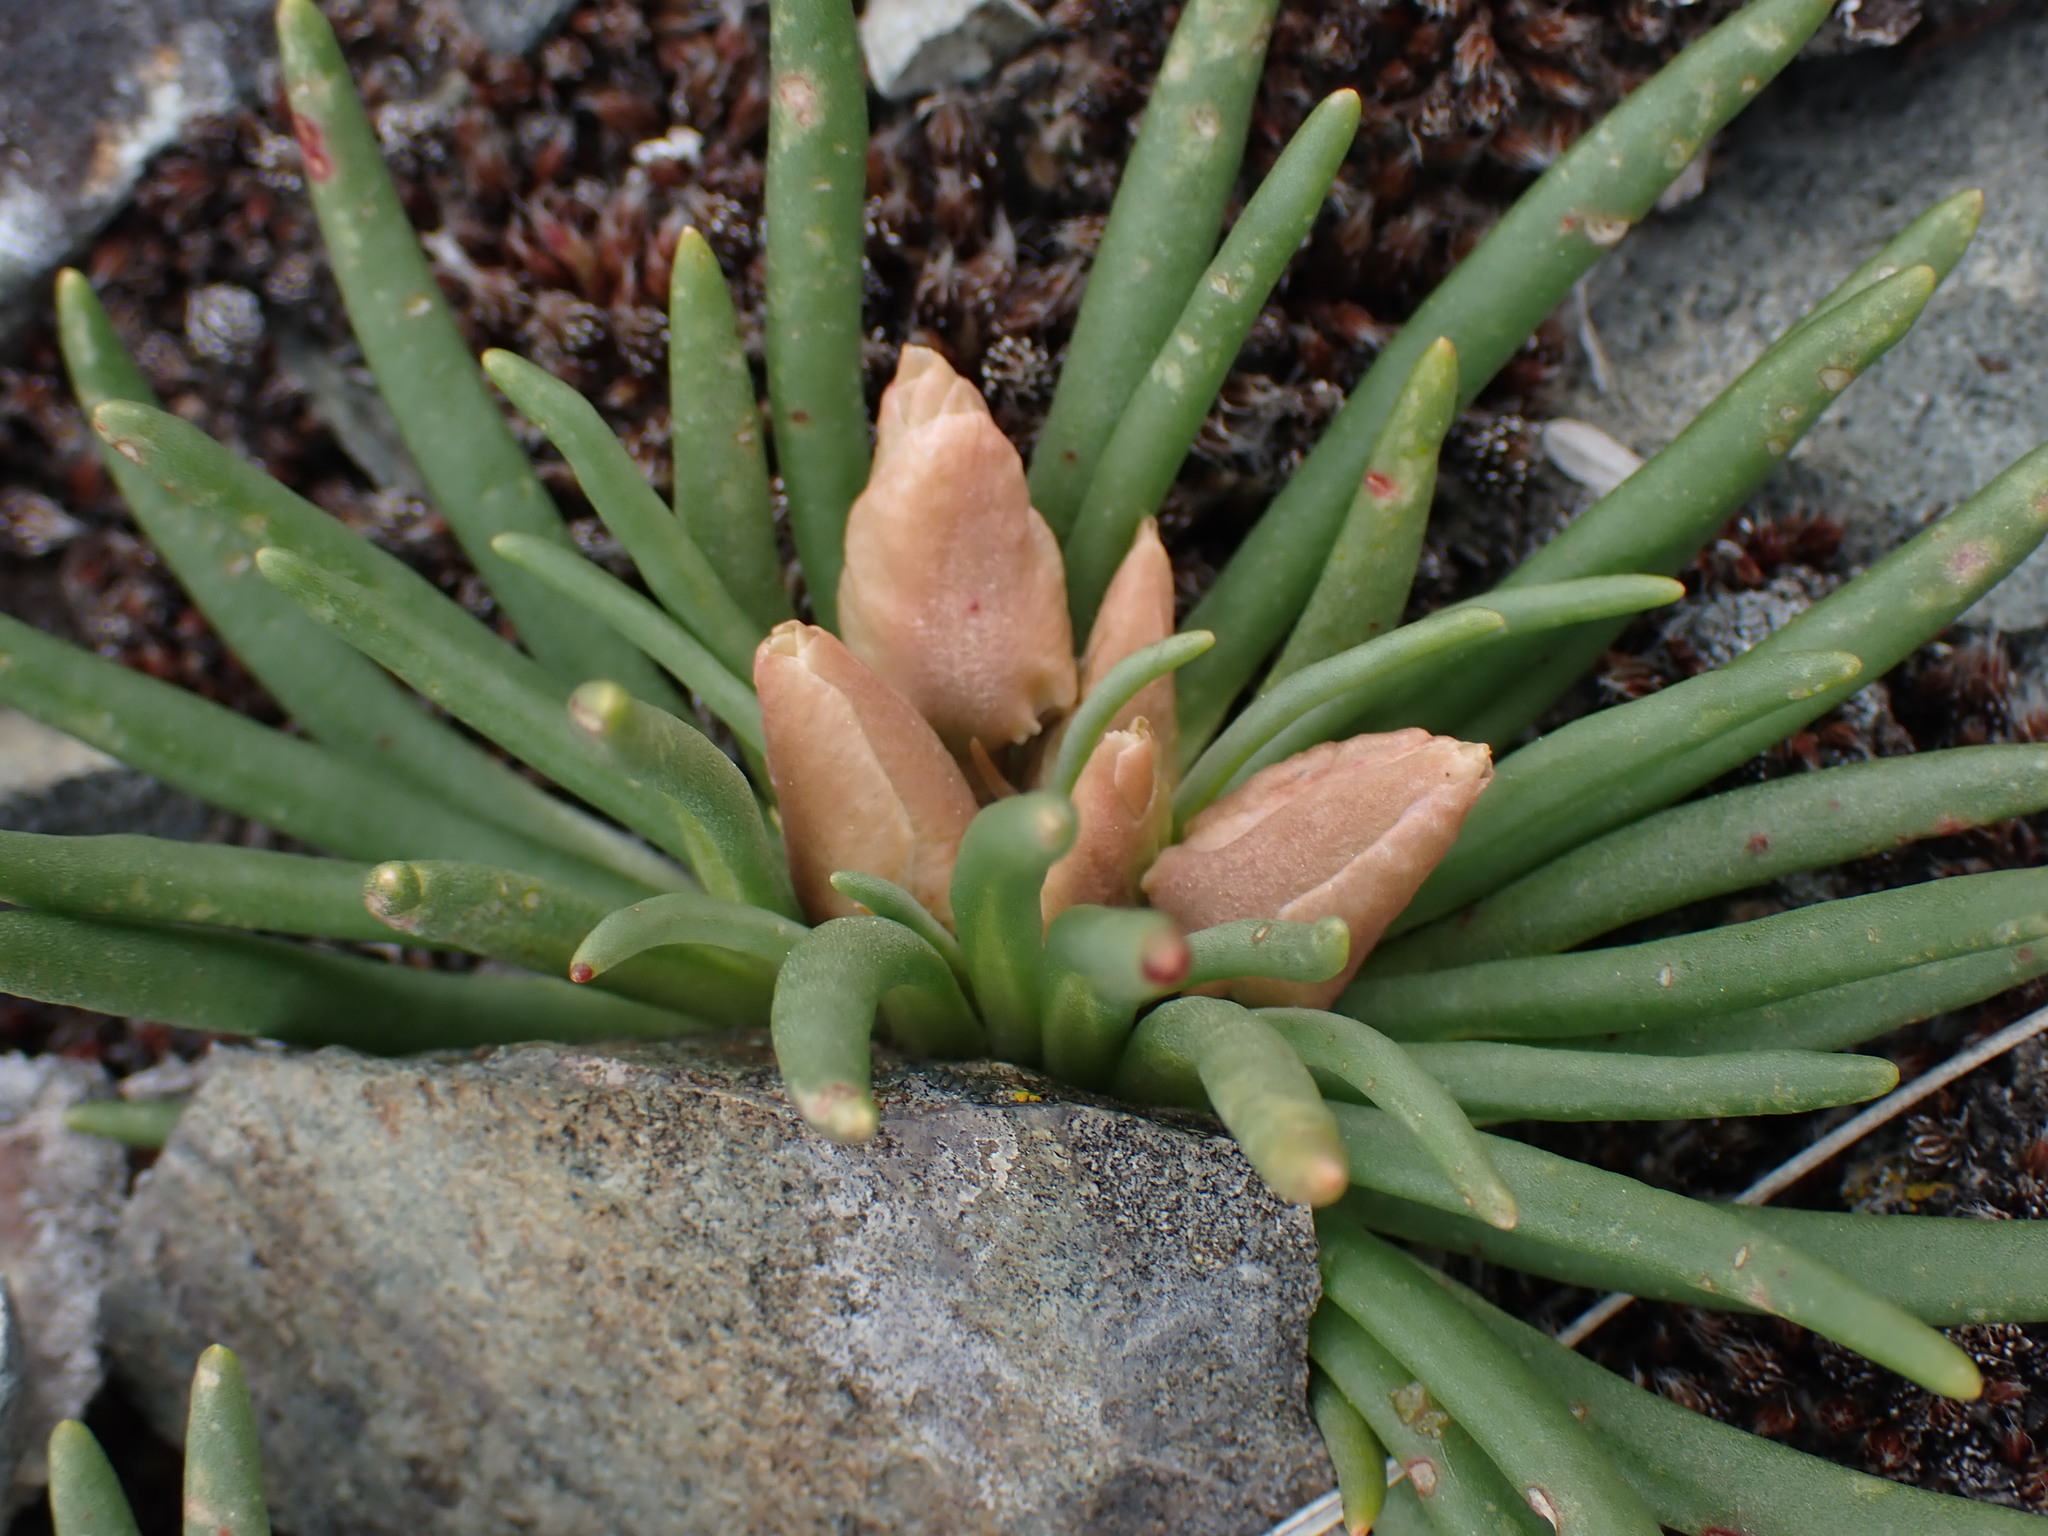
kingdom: Plantae
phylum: Tracheophyta
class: Magnoliopsida
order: Caryophyllales
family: Montiaceae
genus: Lewisia
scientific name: Lewisia rediviva
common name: Bitter-root
